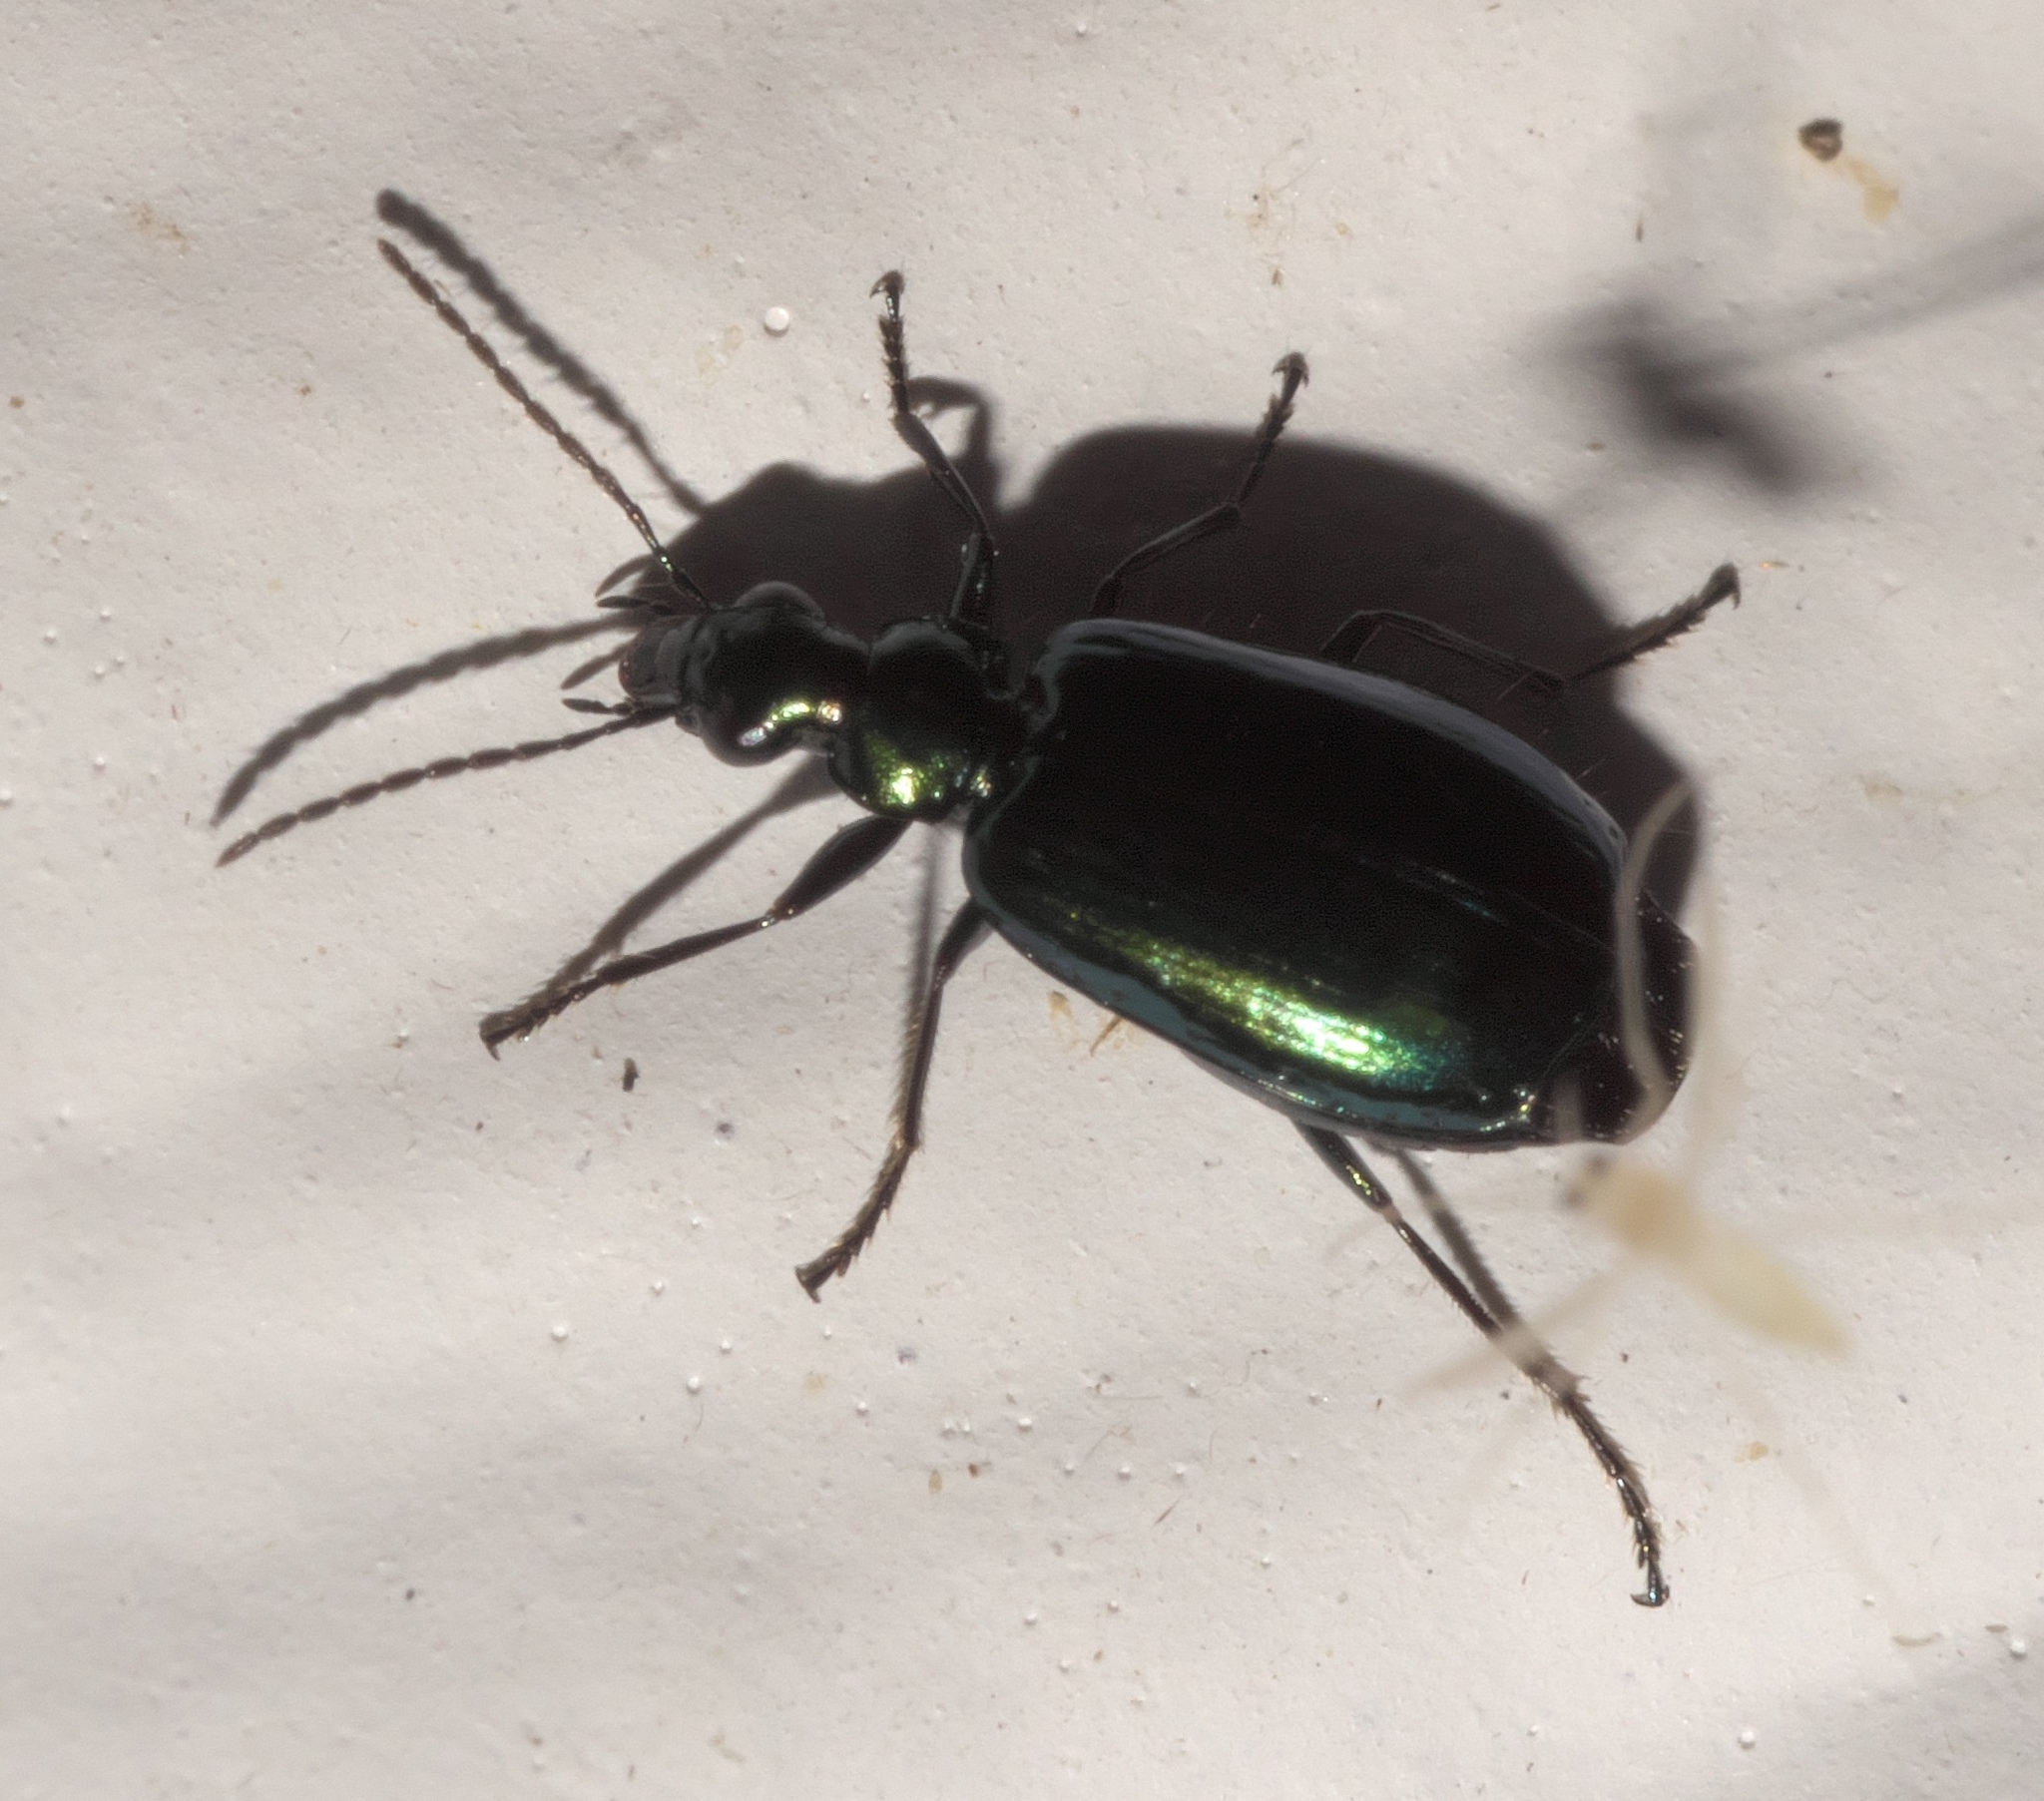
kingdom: Animalia
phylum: Arthropoda
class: Insecta
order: Coleoptera
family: Carabidae
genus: Lebia
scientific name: Lebia viridis
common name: Flower lebia beetle
